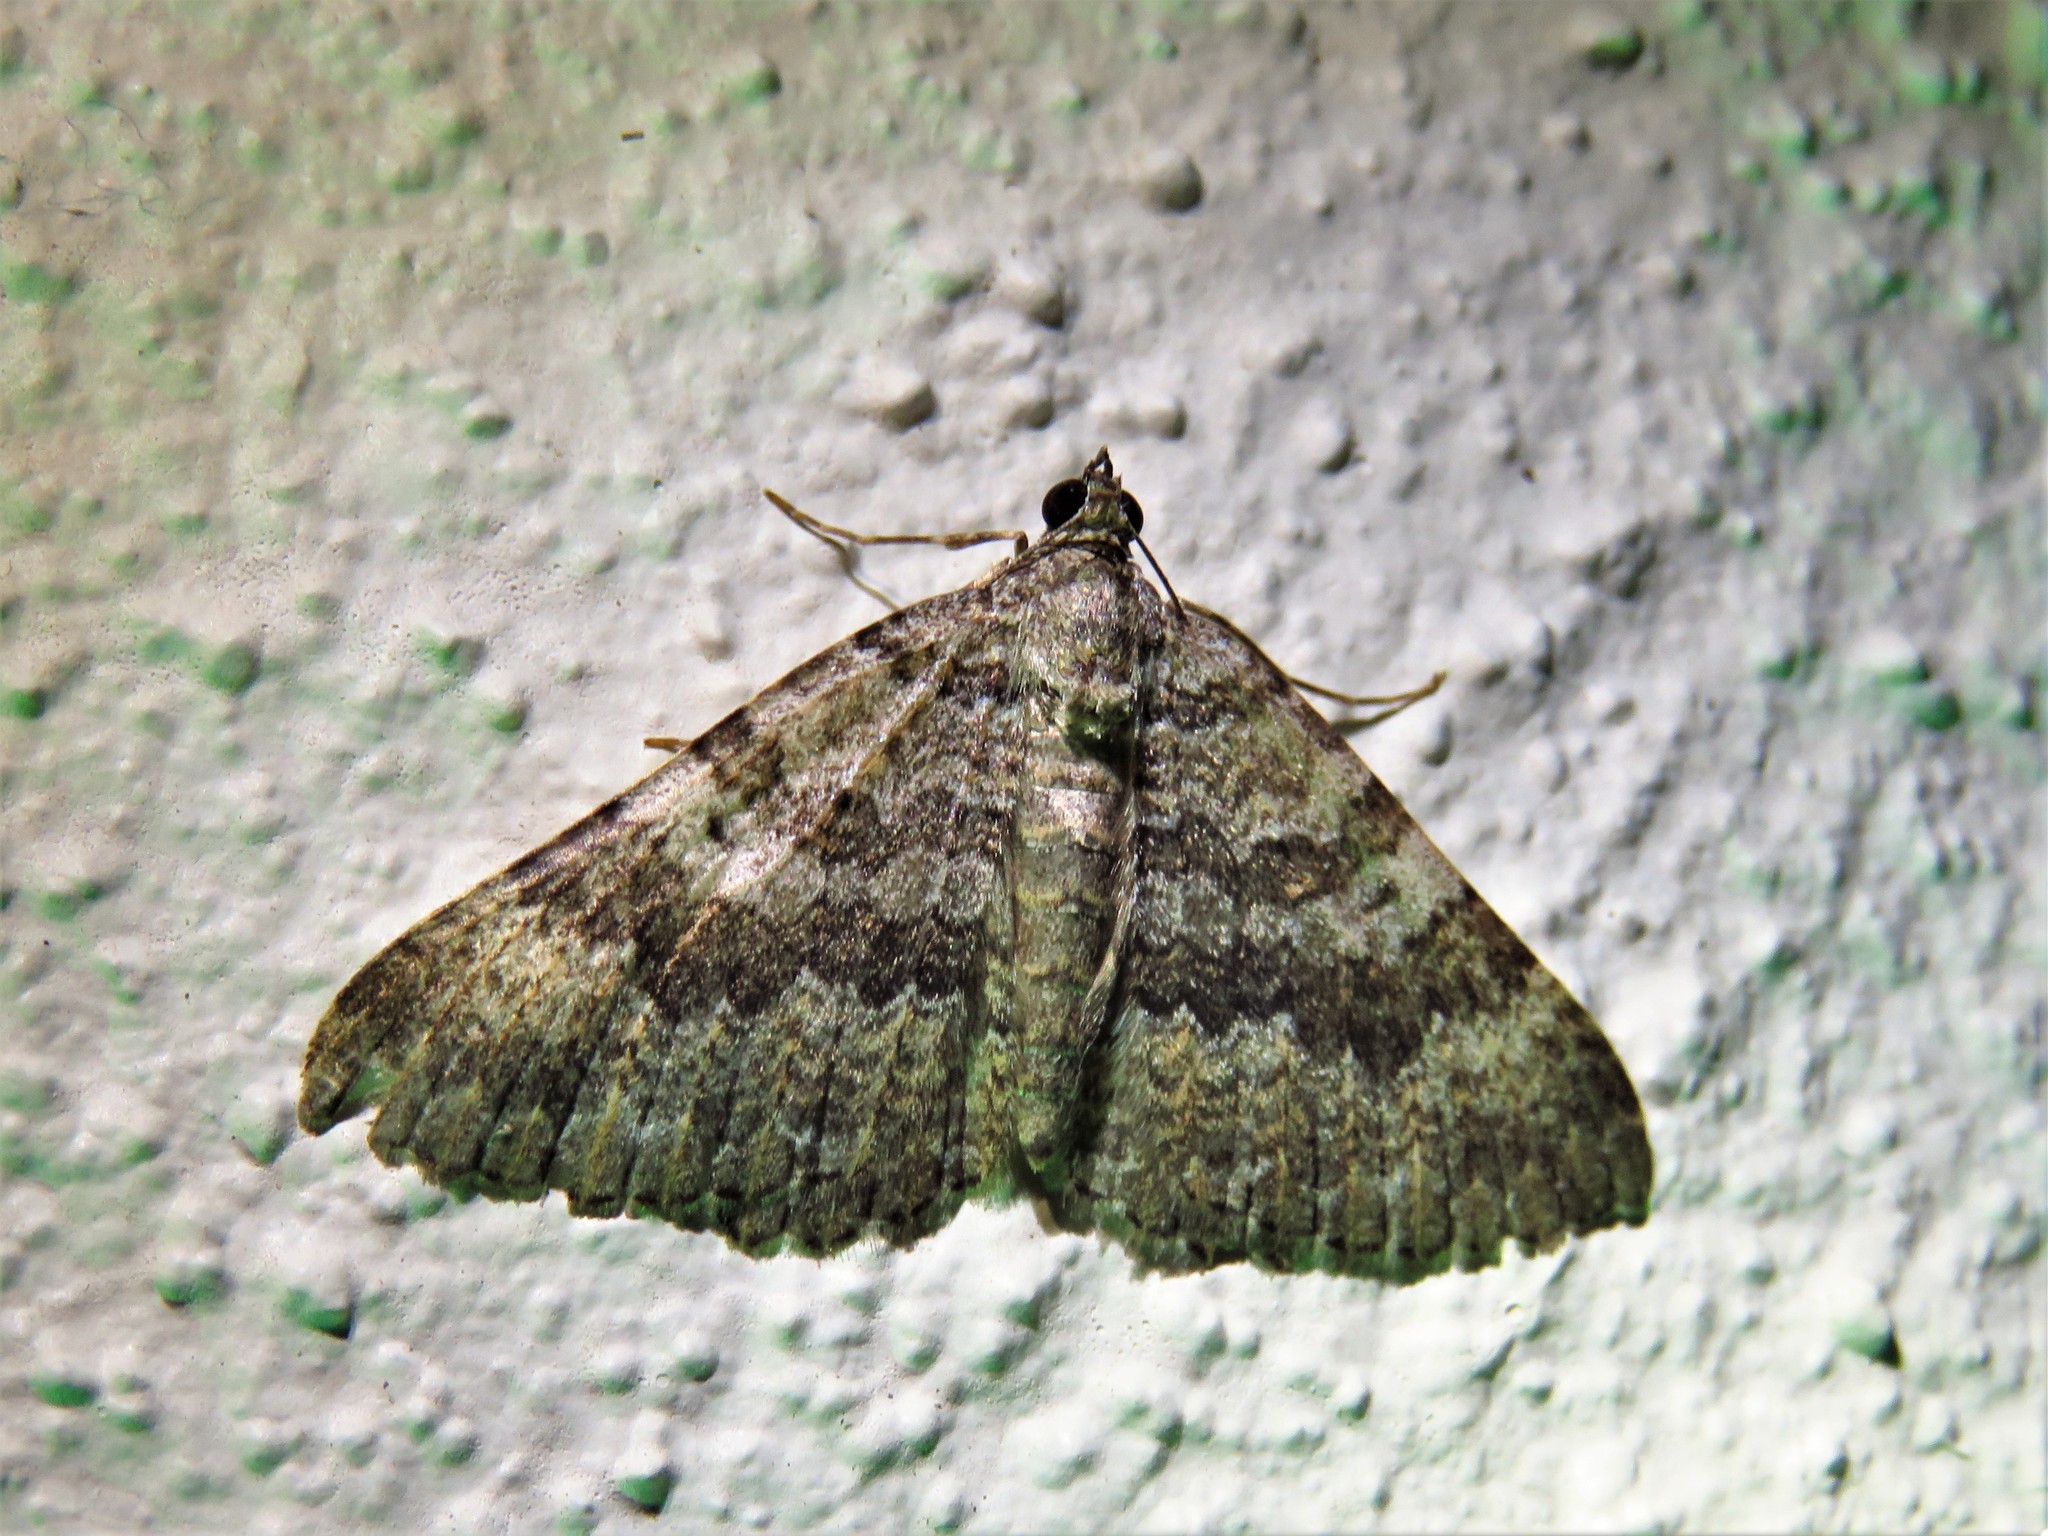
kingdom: Animalia
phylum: Arthropoda
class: Insecta
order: Lepidoptera
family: Geometridae
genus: Archirhoe
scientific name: Archirhoe neomexicana
